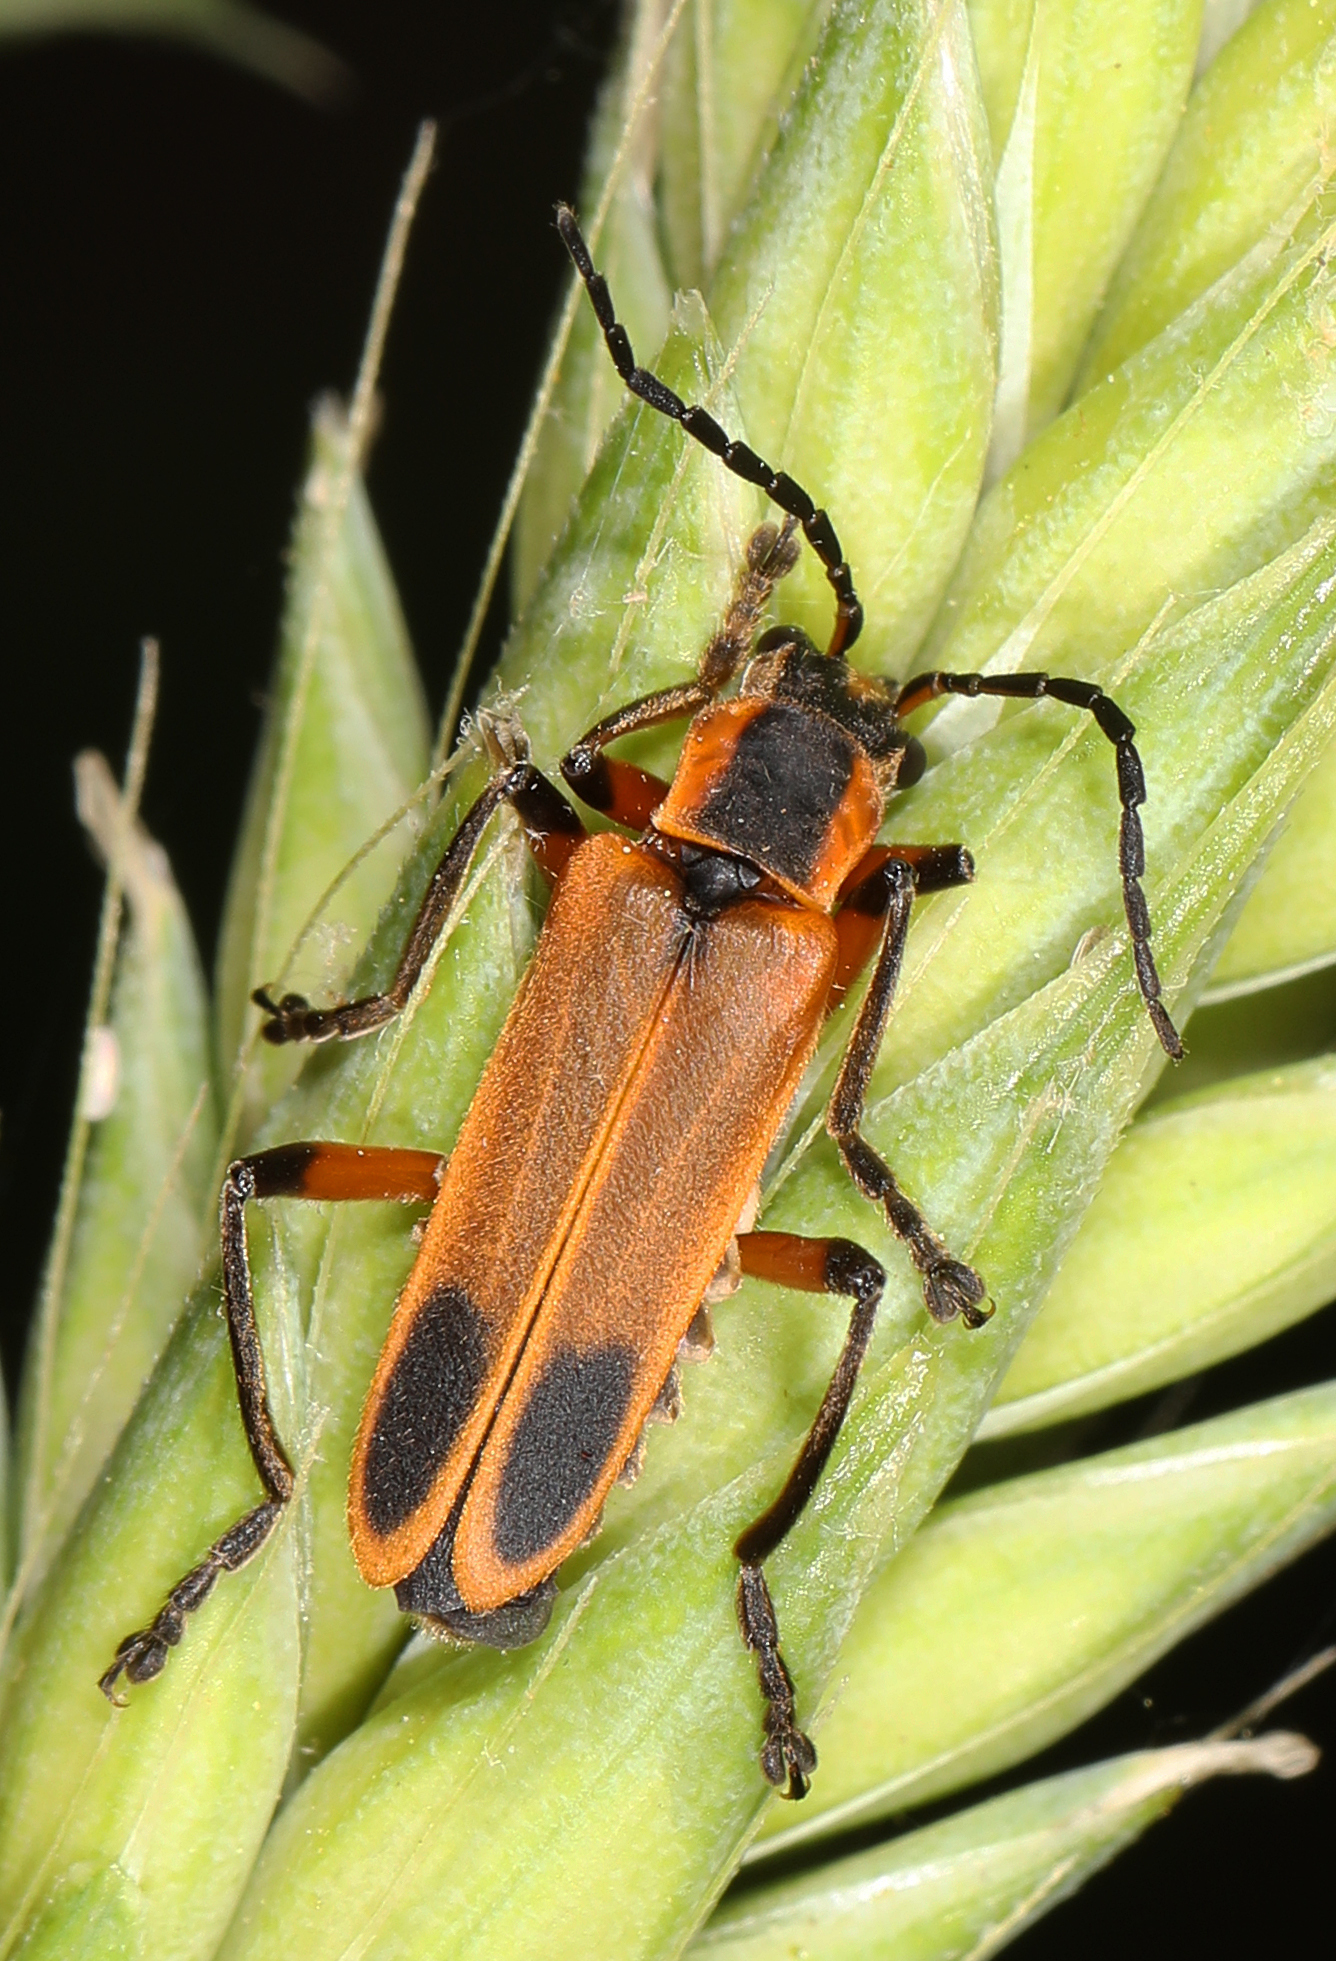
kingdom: Animalia
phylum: Arthropoda
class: Insecta
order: Coleoptera
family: Cantharidae
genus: Chauliognathus
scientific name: Chauliognathus marginatus
